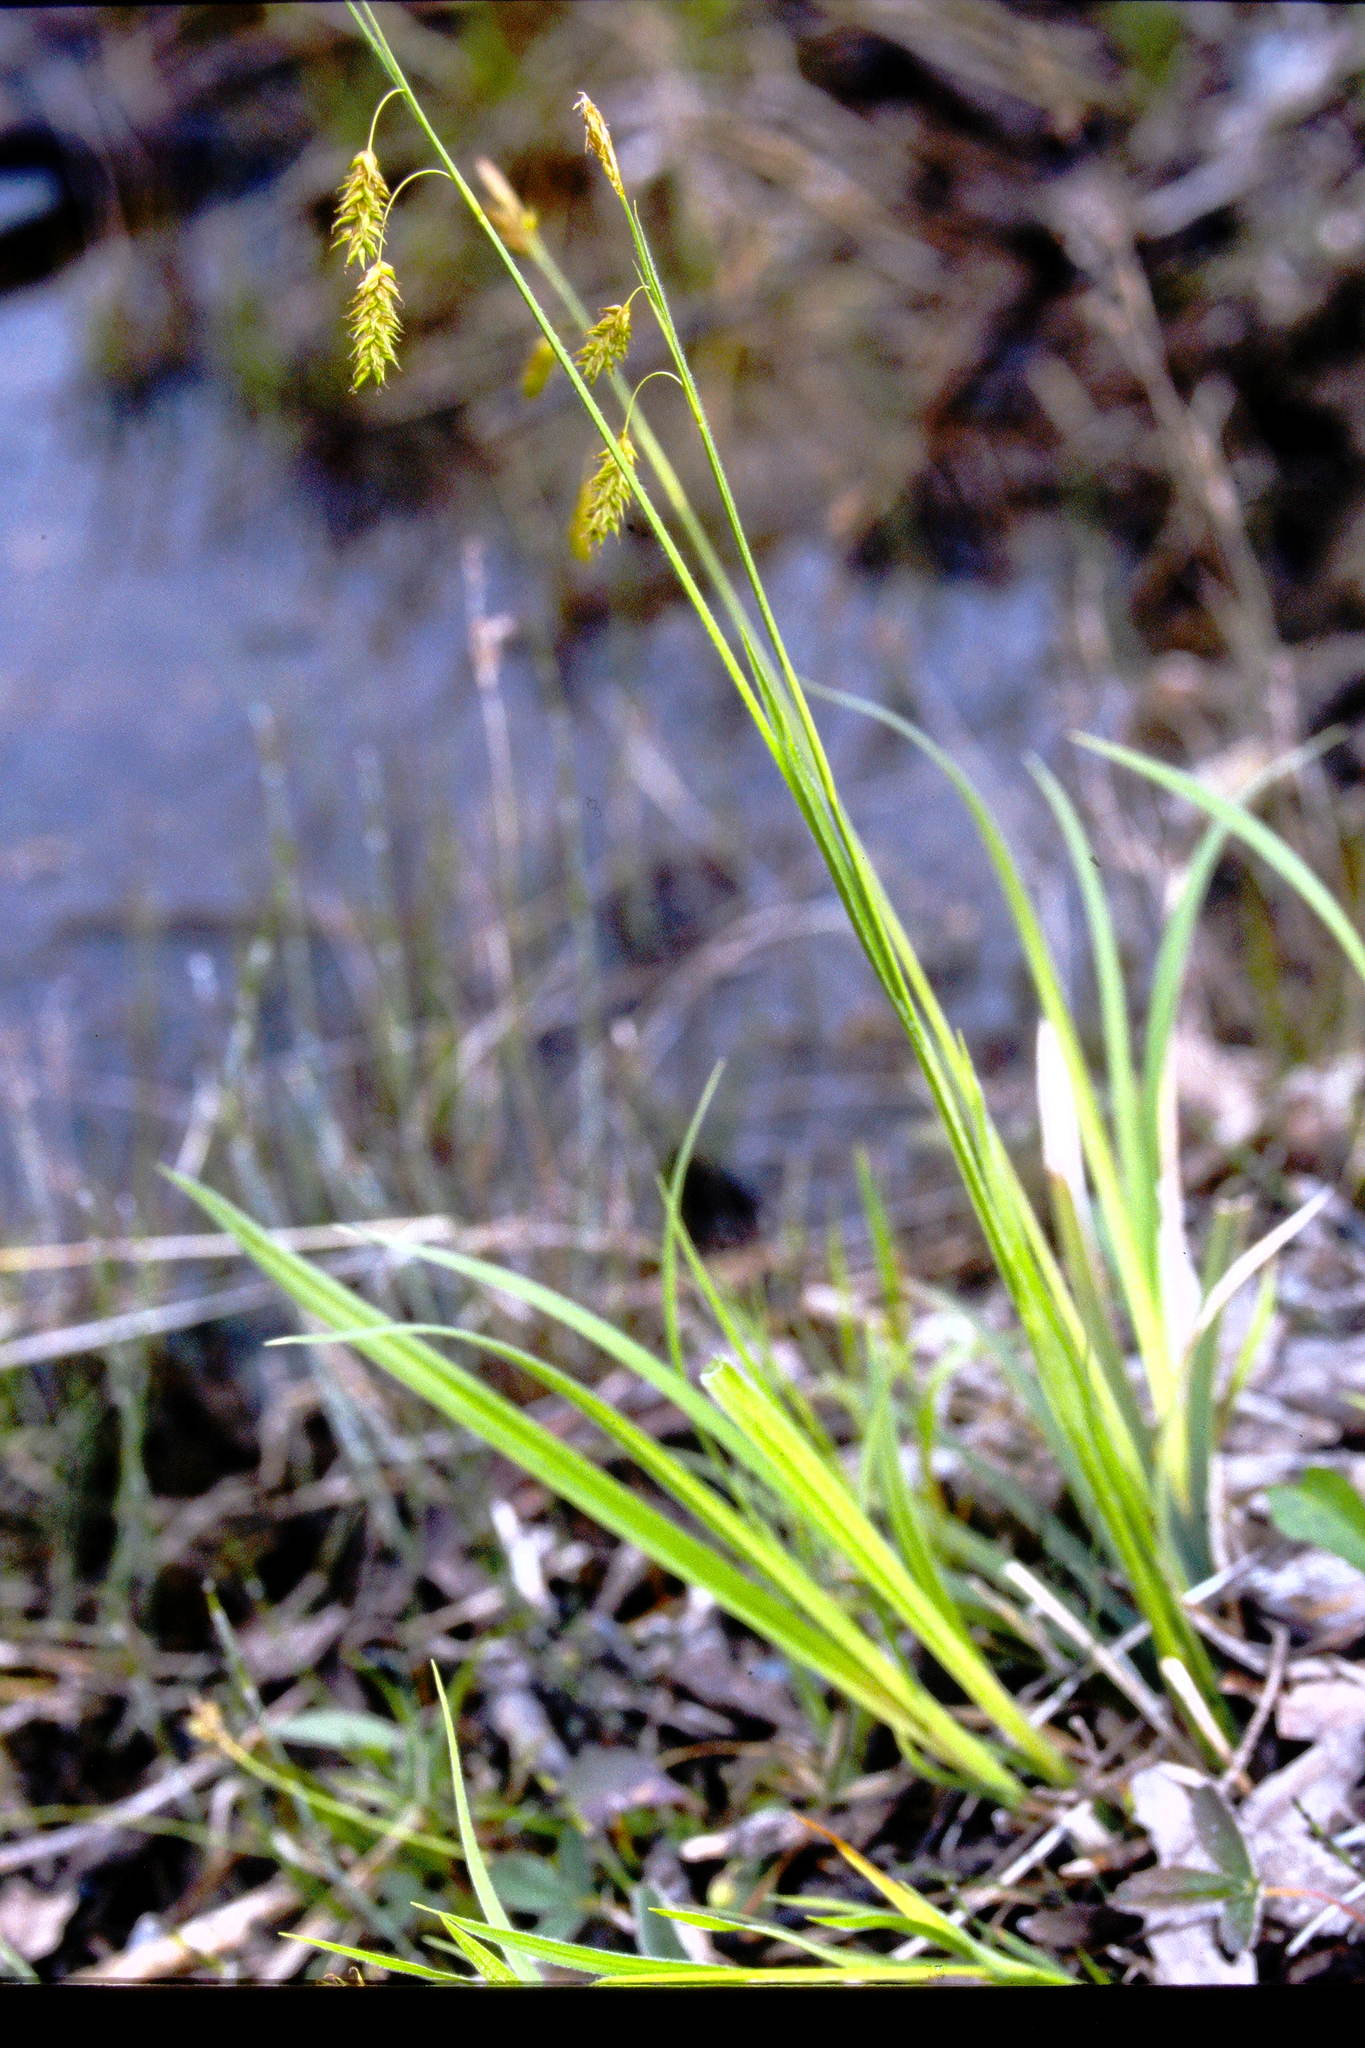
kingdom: Plantae
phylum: Tracheophyta
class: Liliopsida
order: Poales
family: Cyperaceae
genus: Carex
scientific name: Carex castanea
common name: Chestnut sedge
